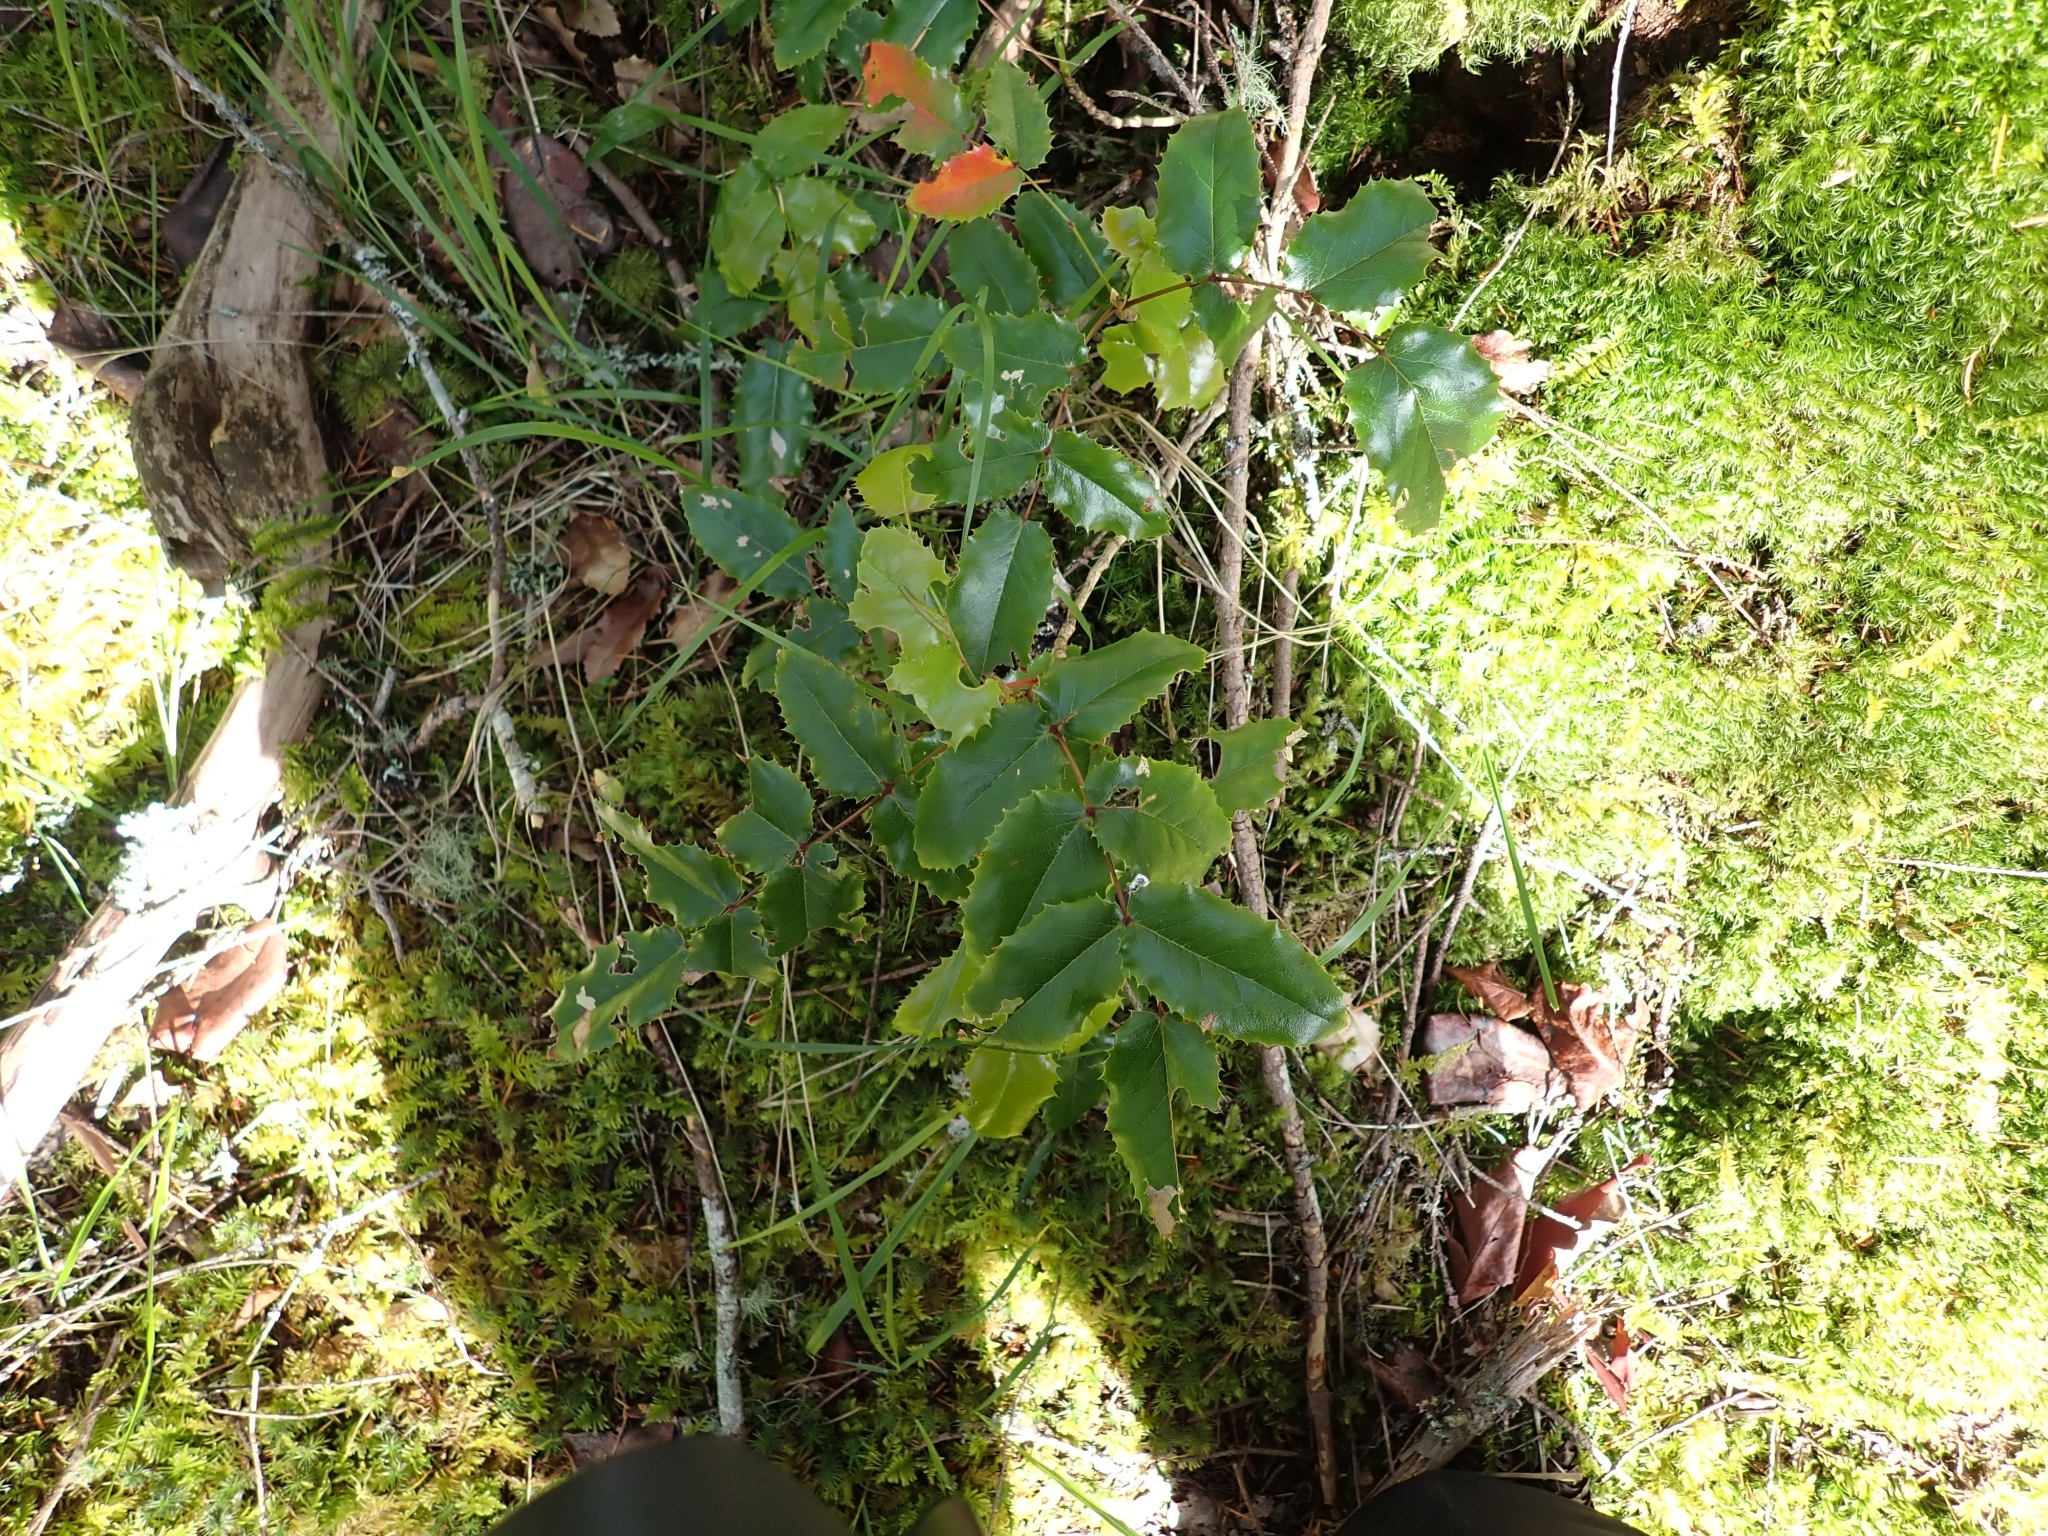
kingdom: Plantae
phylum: Tracheophyta
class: Magnoliopsida
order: Ranunculales
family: Berberidaceae
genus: Mahonia
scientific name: Mahonia aquifolium
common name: Oregon-grape
